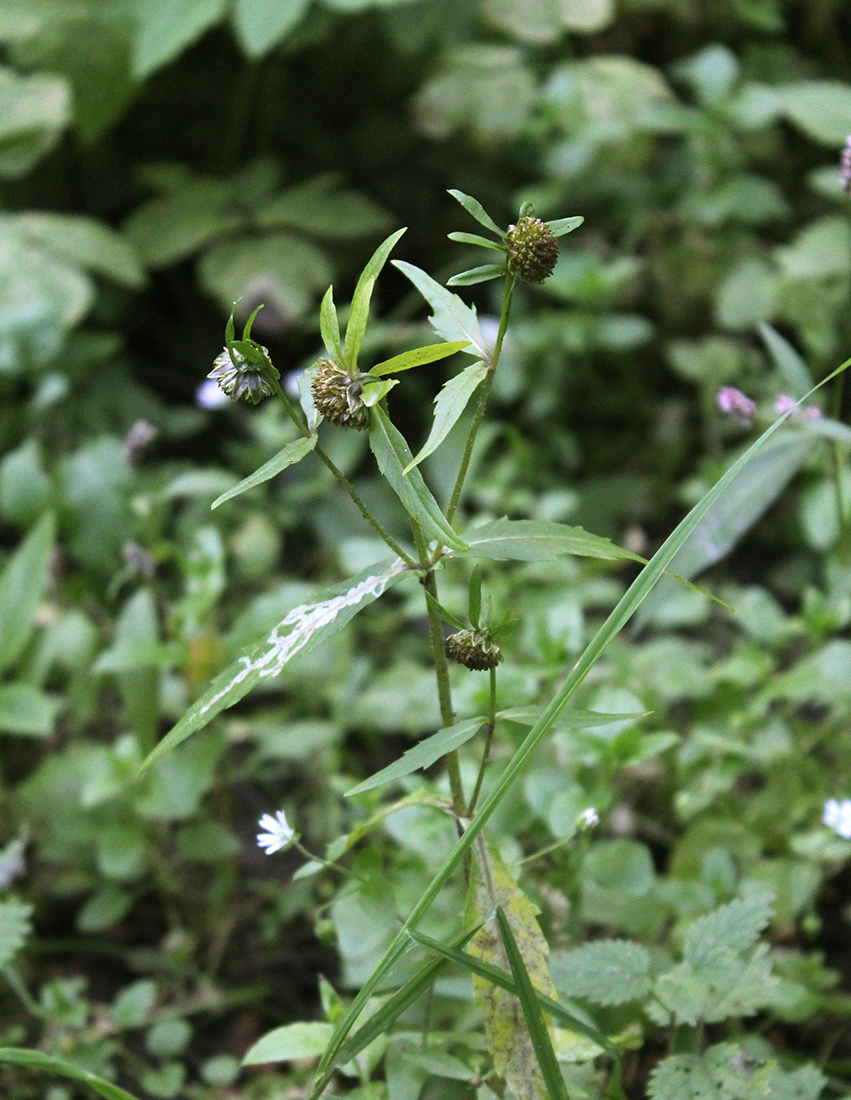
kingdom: Plantae
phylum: Tracheophyta
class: Magnoliopsida
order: Asterales
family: Asteraceae
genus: Bidens
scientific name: Bidens cernua
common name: Nodding bur-marigold
